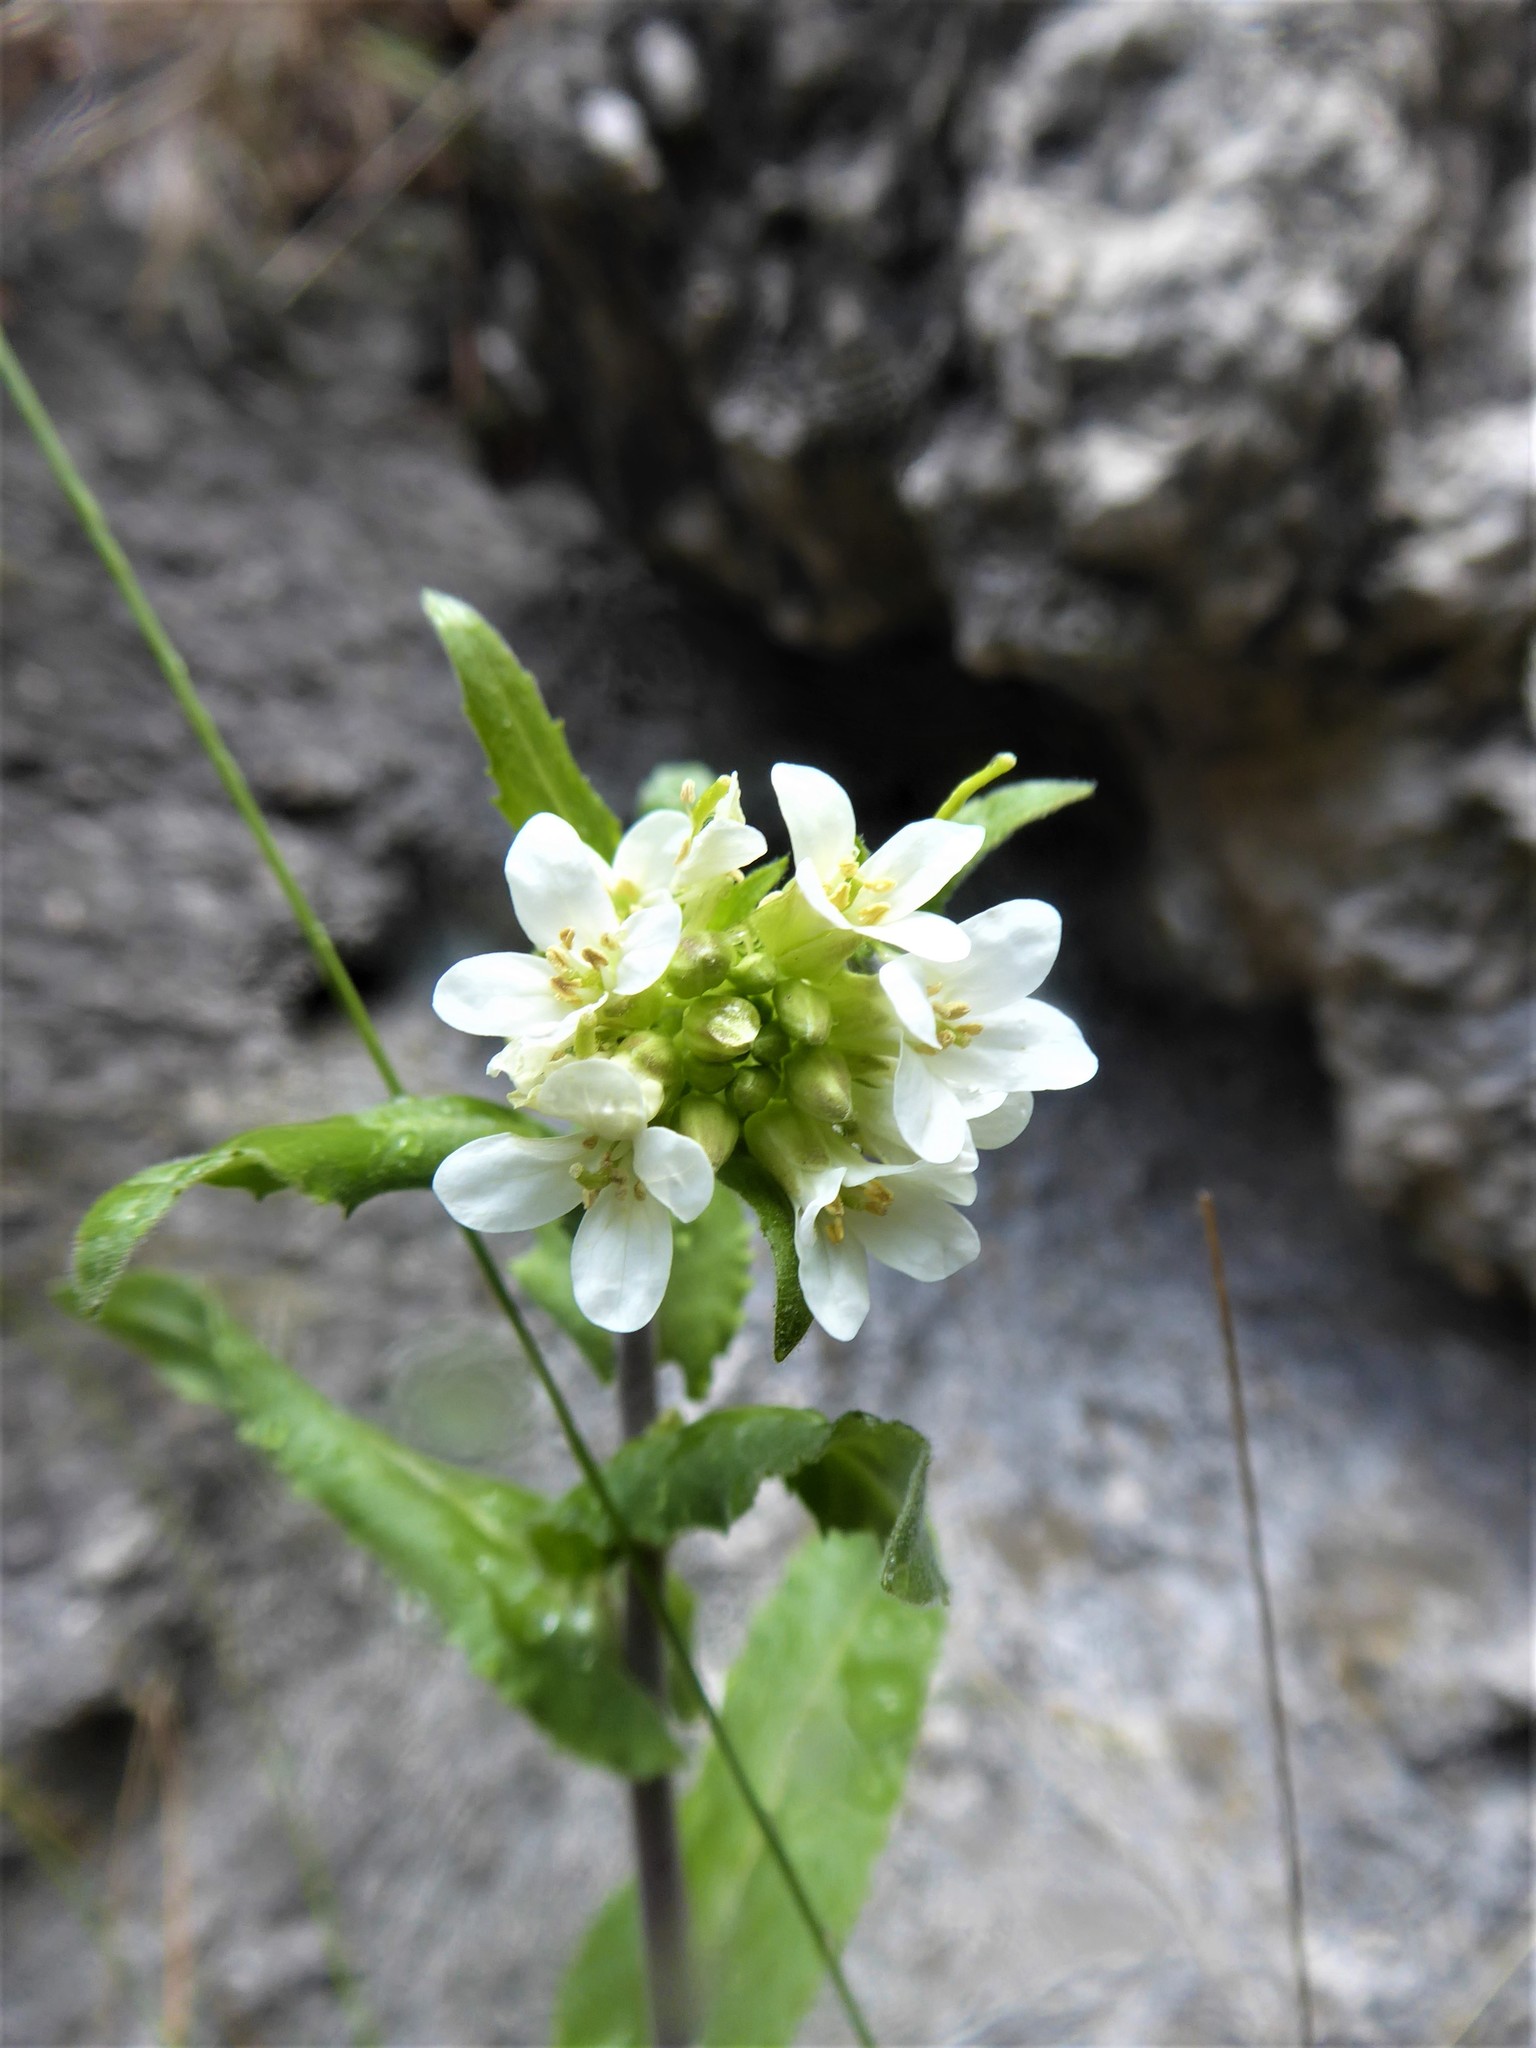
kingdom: Plantae
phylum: Tracheophyta
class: Magnoliopsida
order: Brassicales
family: Brassicaceae
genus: Pseudoturritis
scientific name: Pseudoturritis turrita
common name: Tower cress
